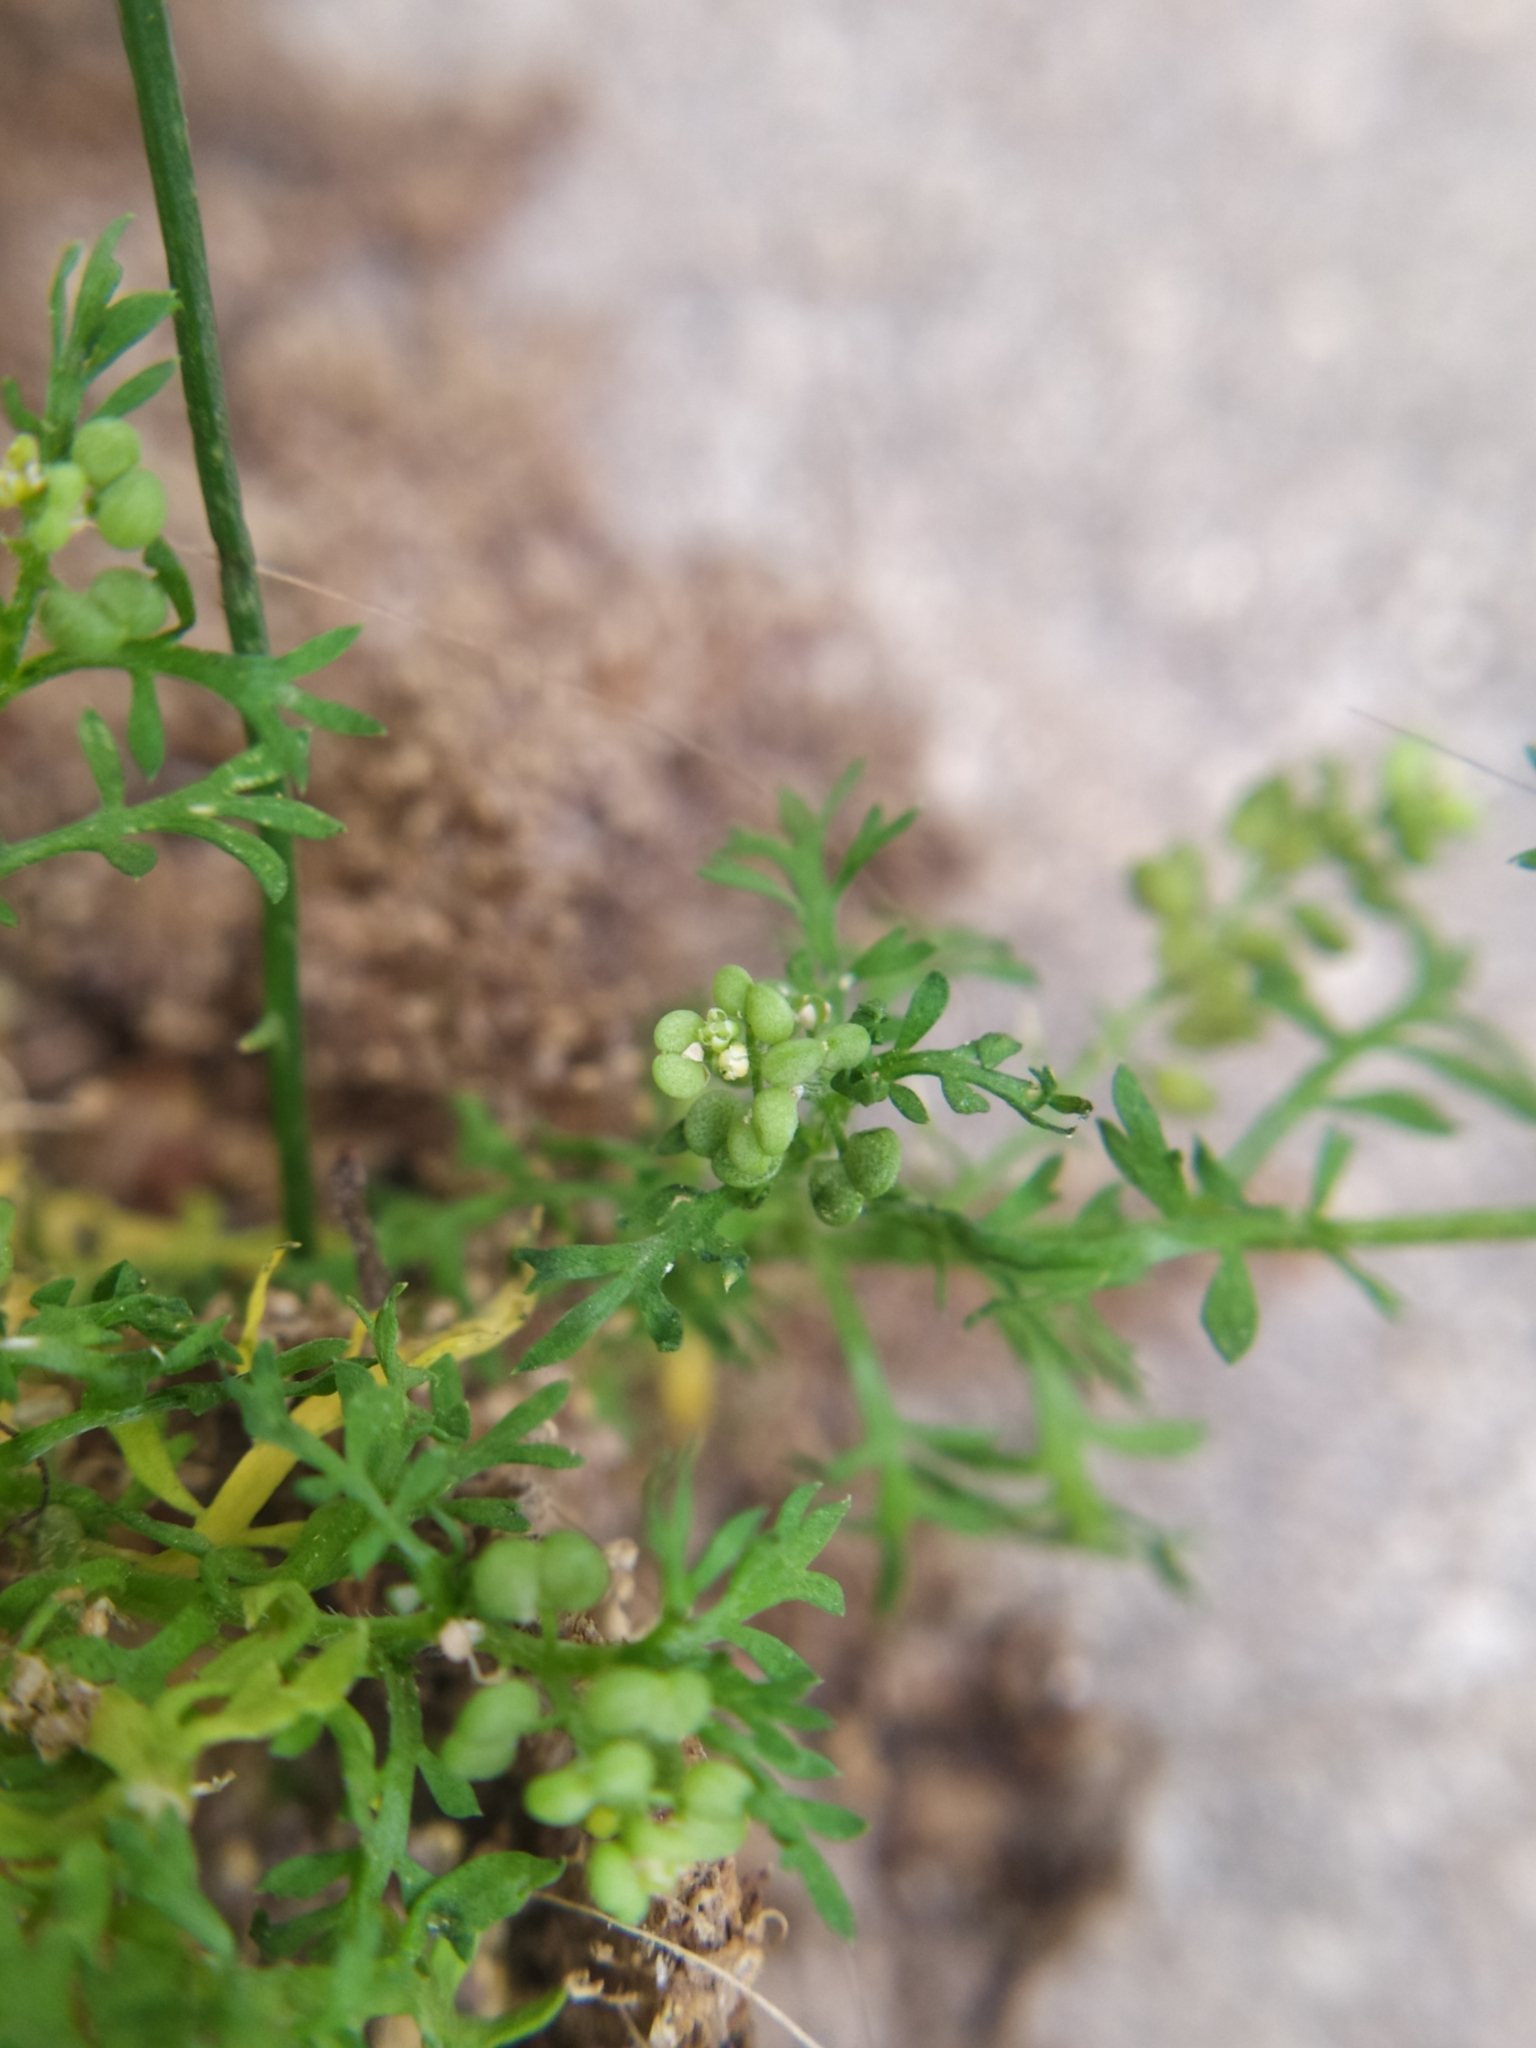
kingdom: Plantae
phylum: Tracheophyta
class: Magnoliopsida
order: Brassicales
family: Brassicaceae
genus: Lepidium
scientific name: Lepidium didymum
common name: Lesser swinecress
